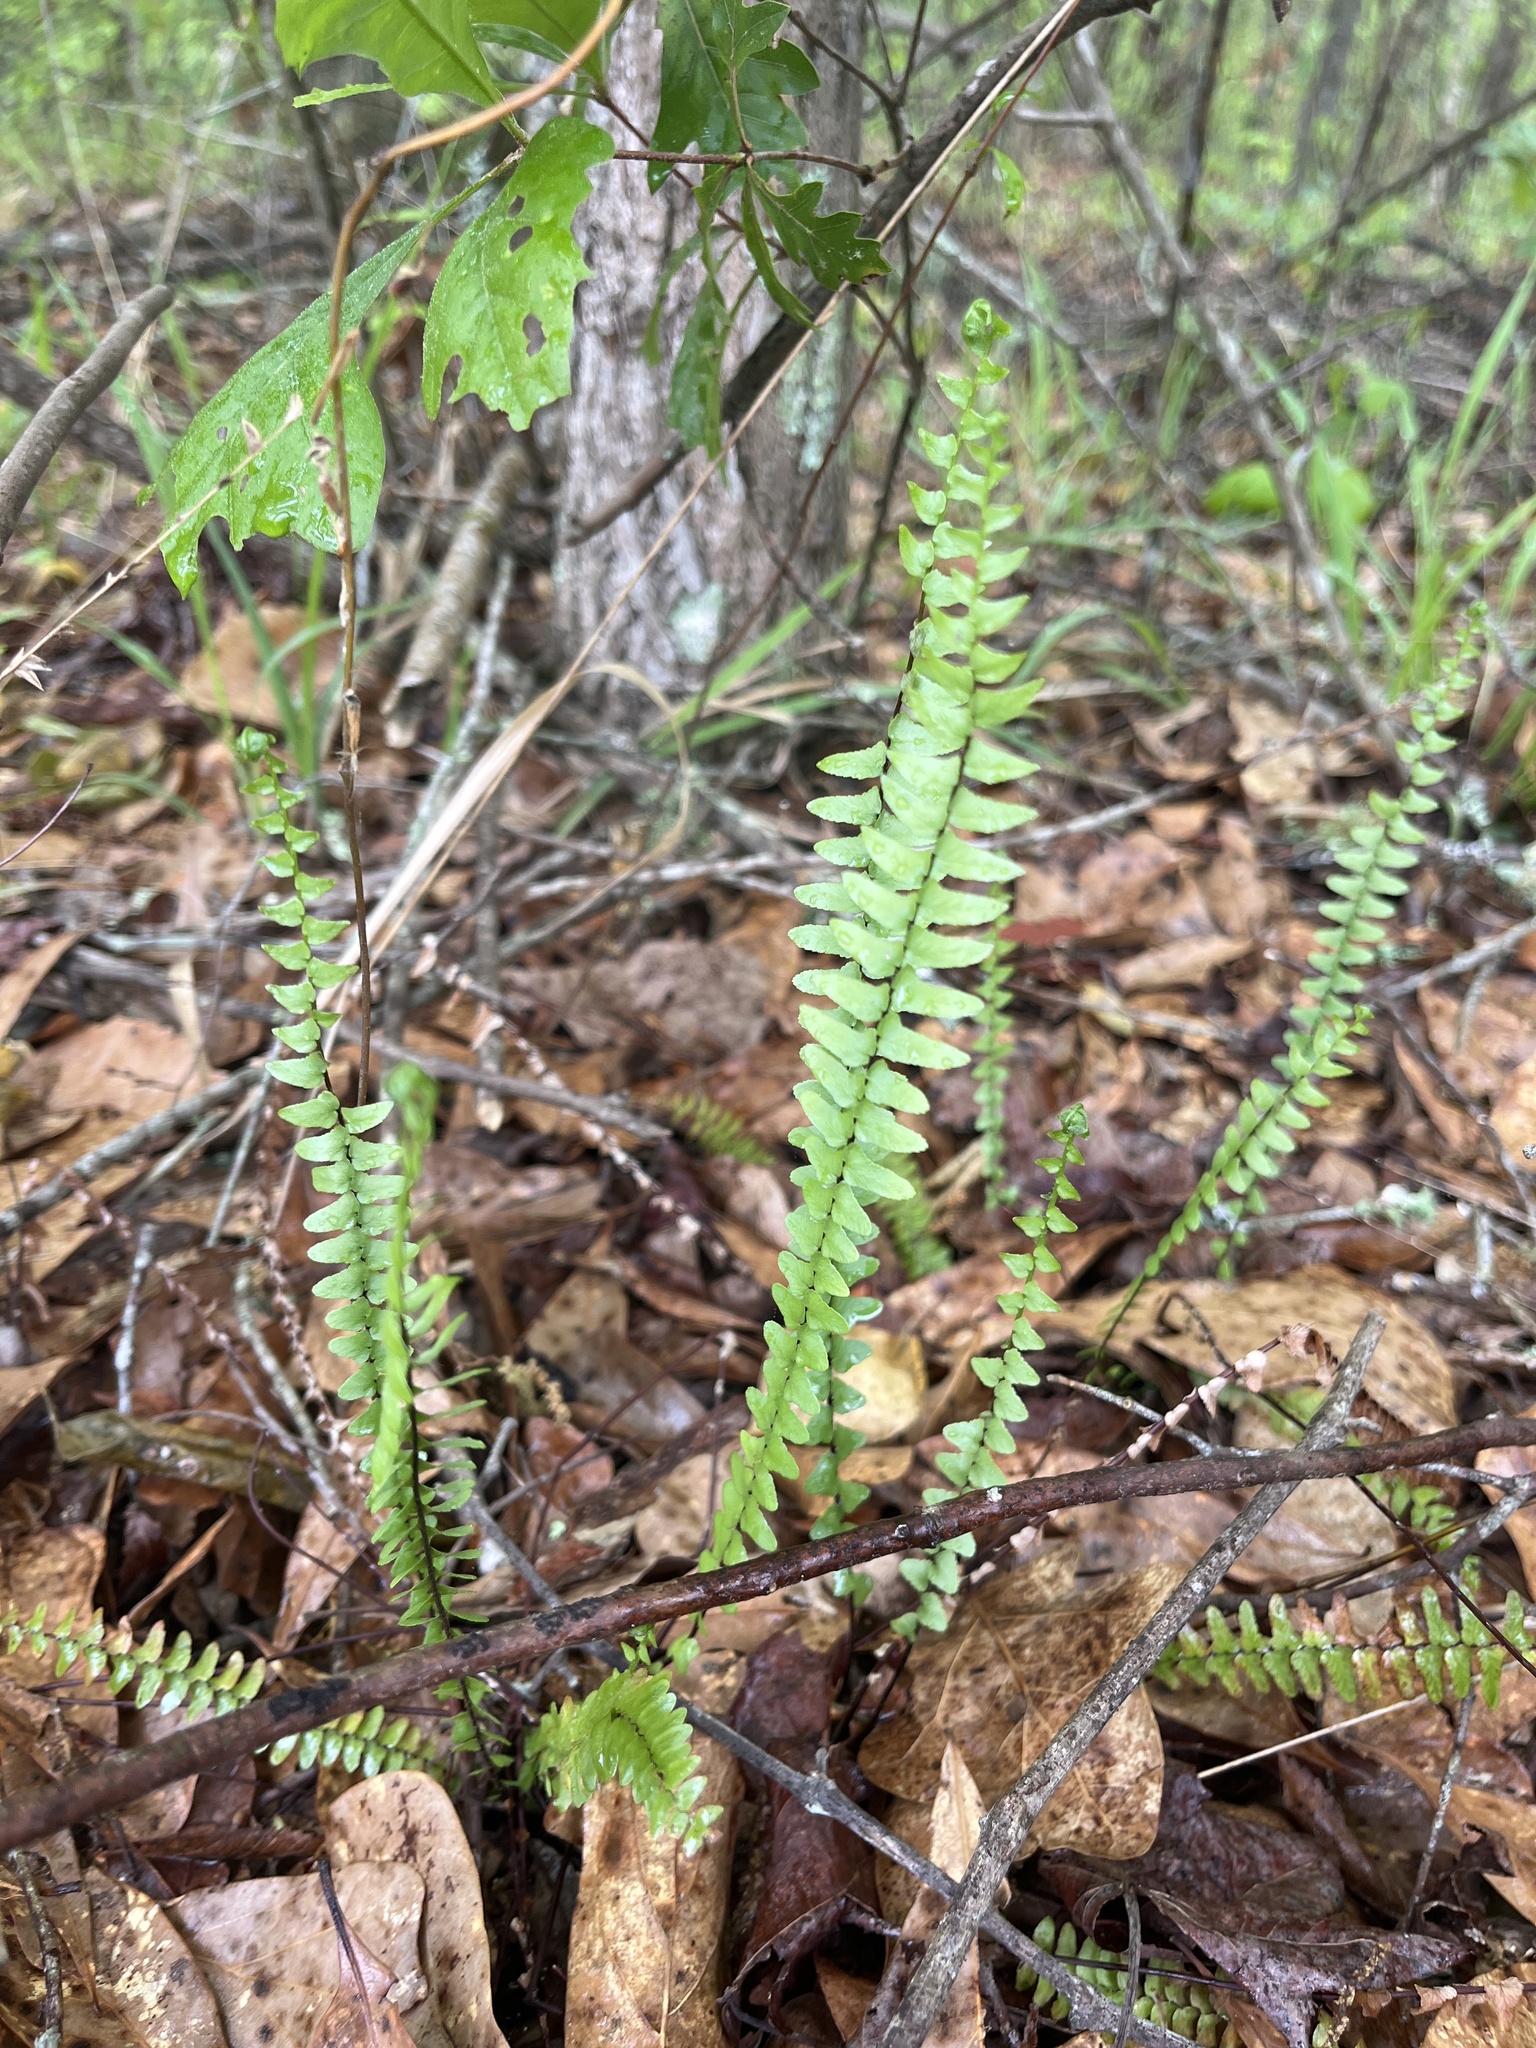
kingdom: Plantae
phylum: Tracheophyta
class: Polypodiopsida
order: Polypodiales
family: Aspleniaceae
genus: Asplenium
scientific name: Asplenium platyneuron
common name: Ebony spleenwort
